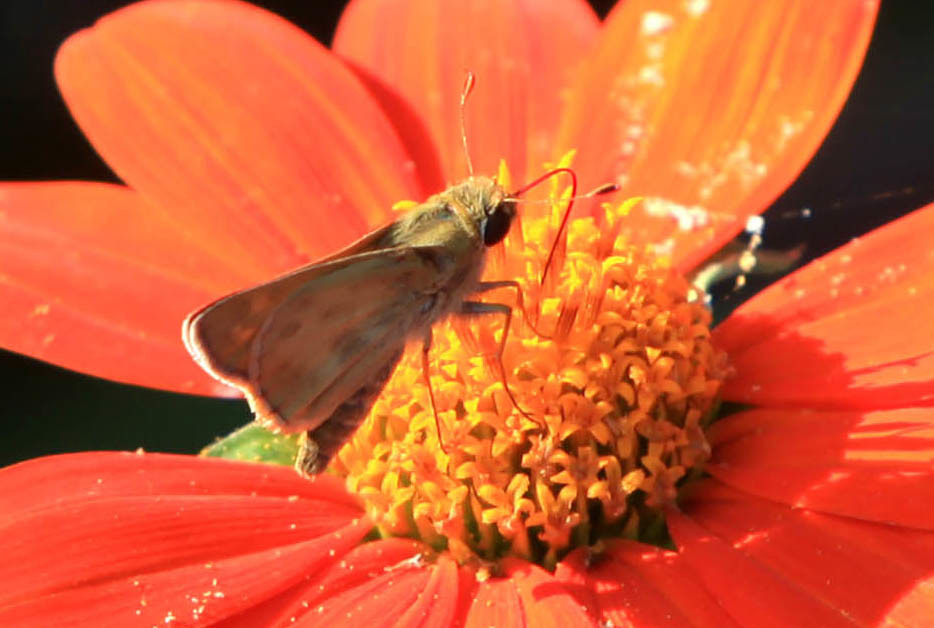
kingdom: Animalia
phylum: Arthropoda
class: Insecta
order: Lepidoptera
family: Hesperiidae
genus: Atalopedes
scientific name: Atalopedes
